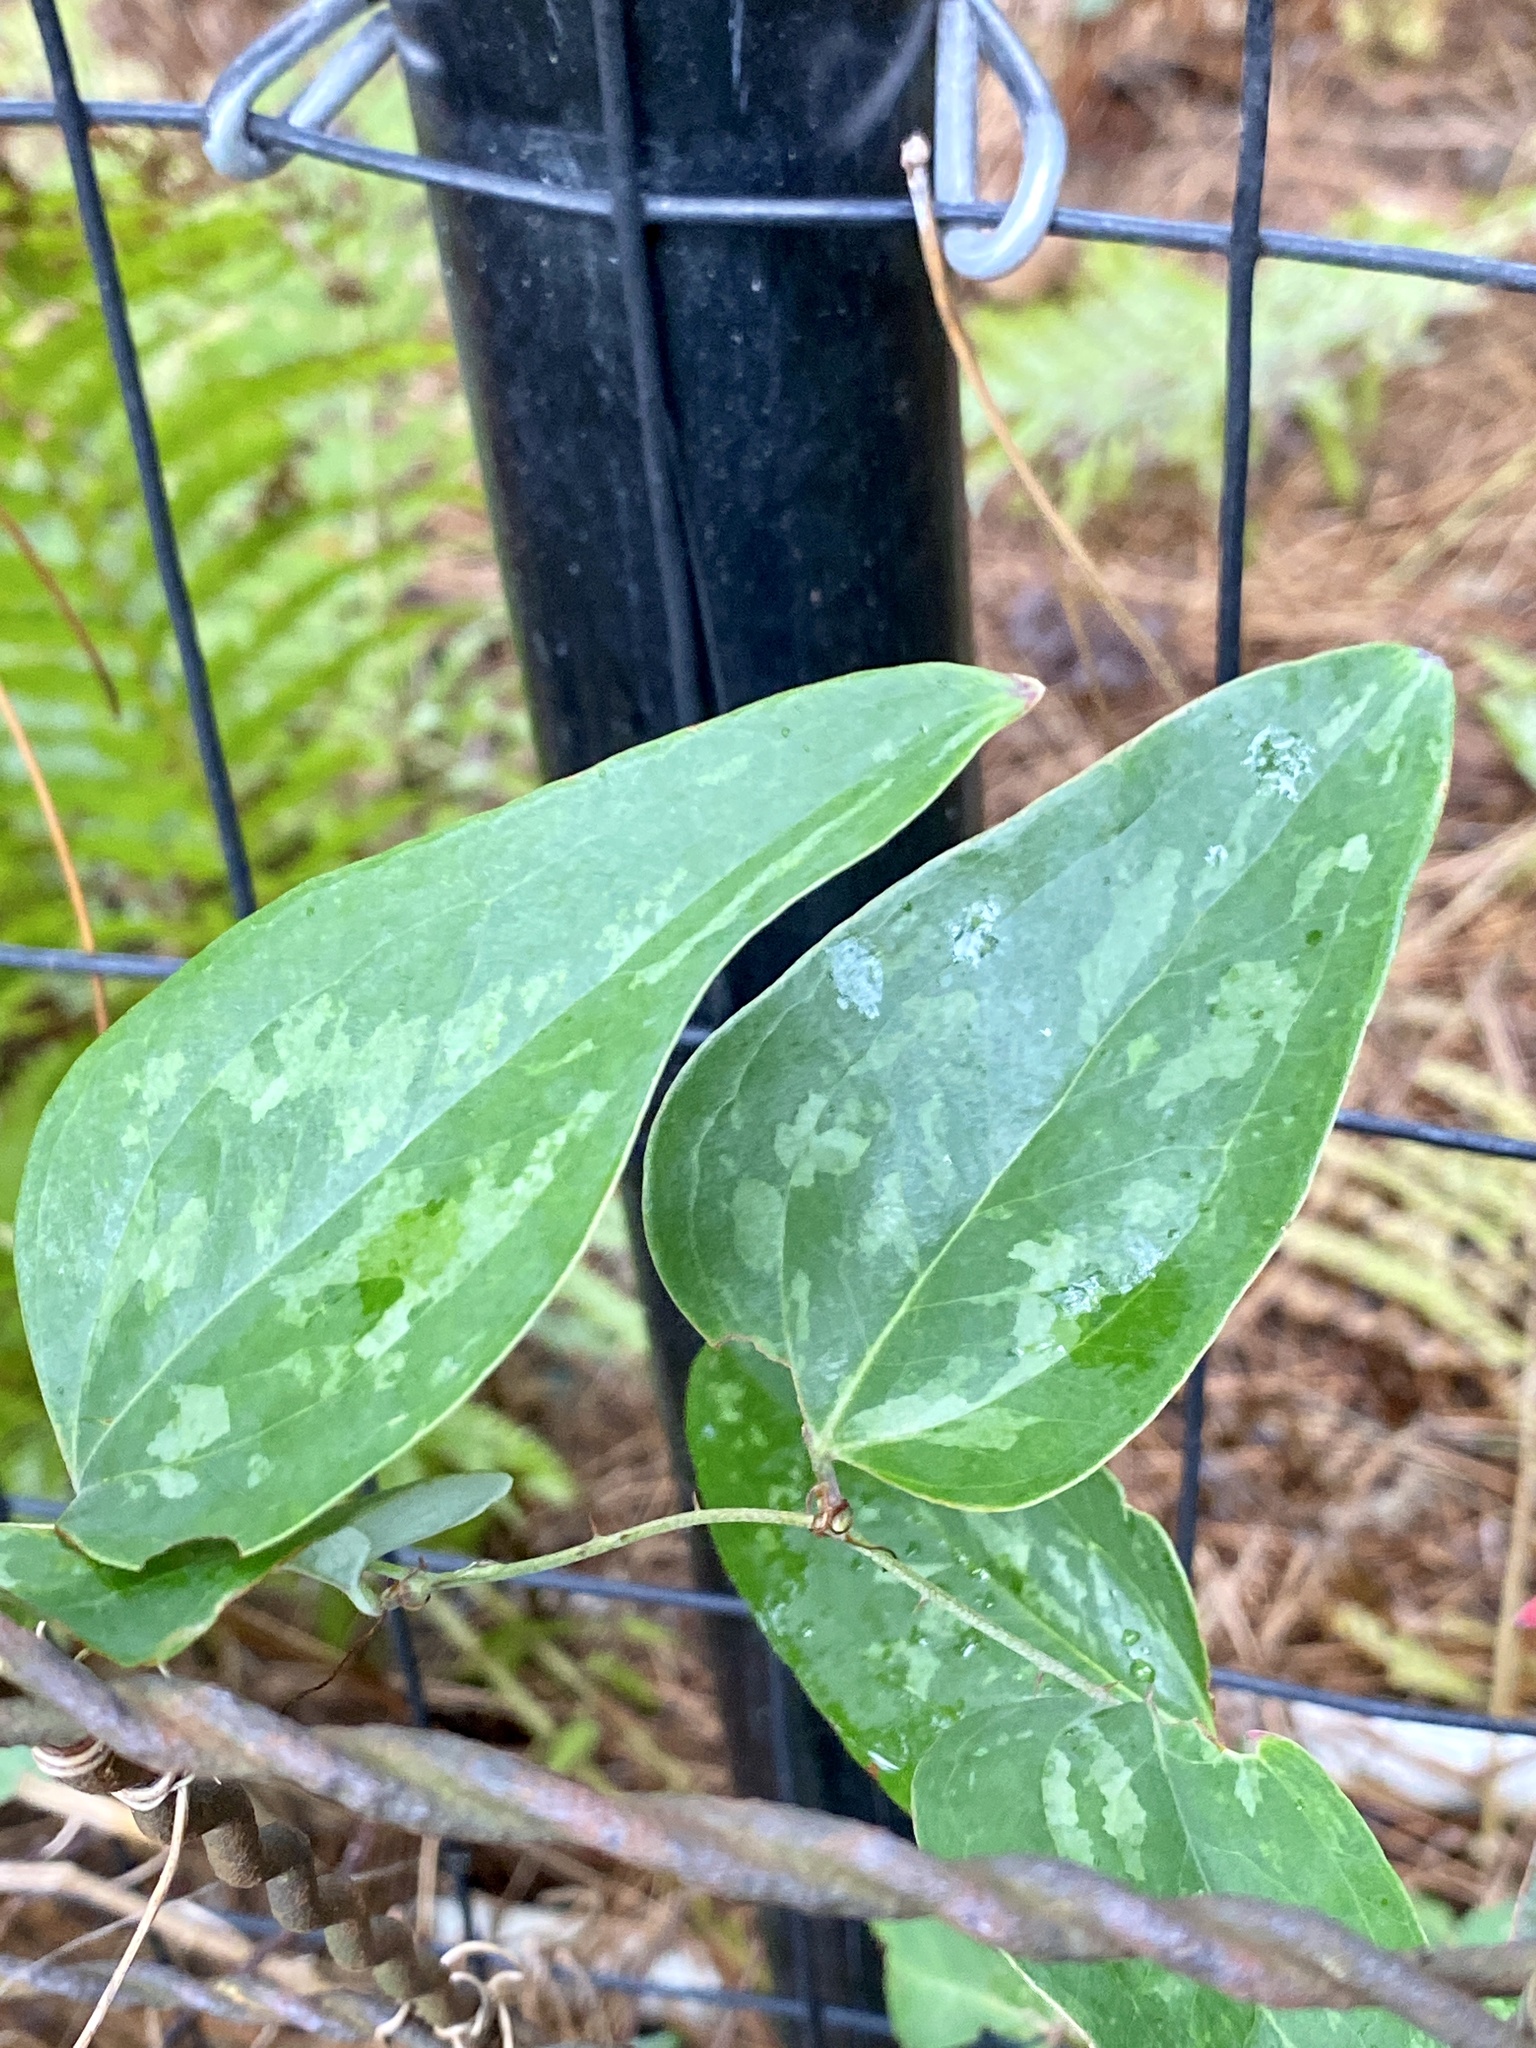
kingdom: Plantae
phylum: Tracheophyta
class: Liliopsida
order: Liliales
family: Smilacaceae
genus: Smilax
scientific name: Smilax glauca
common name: Cat greenbrier
